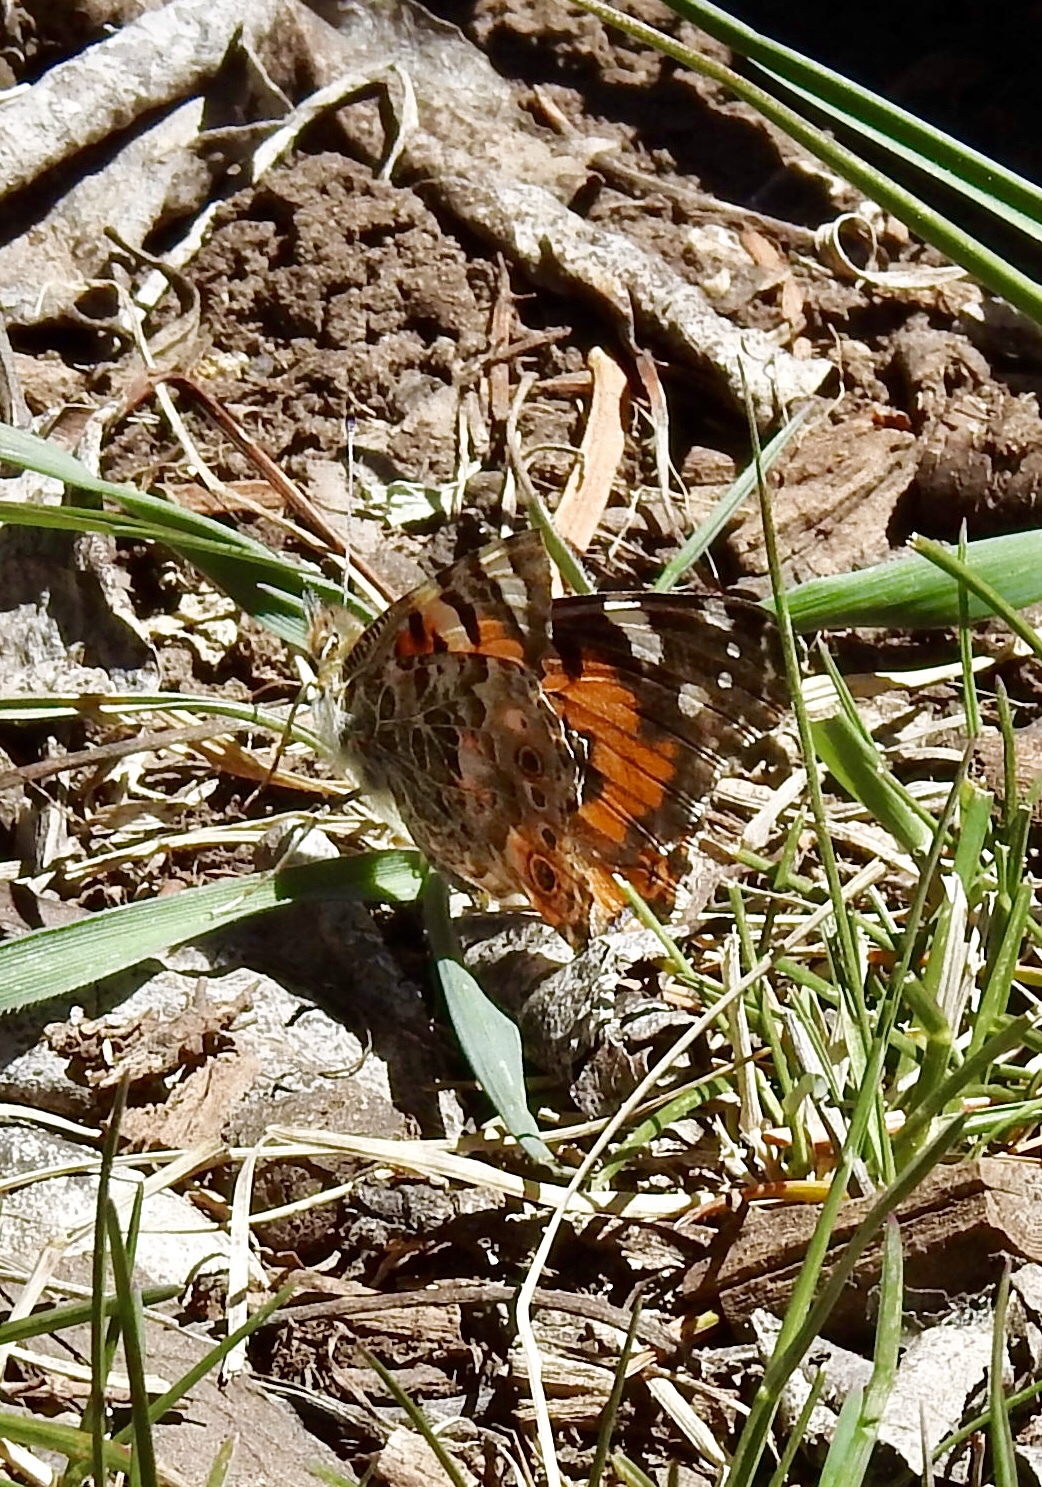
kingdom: Animalia
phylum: Arthropoda
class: Insecta
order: Lepidoptera
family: Nymphalidae
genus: Vanessa
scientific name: Vanessa cardui
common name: Painted lady
